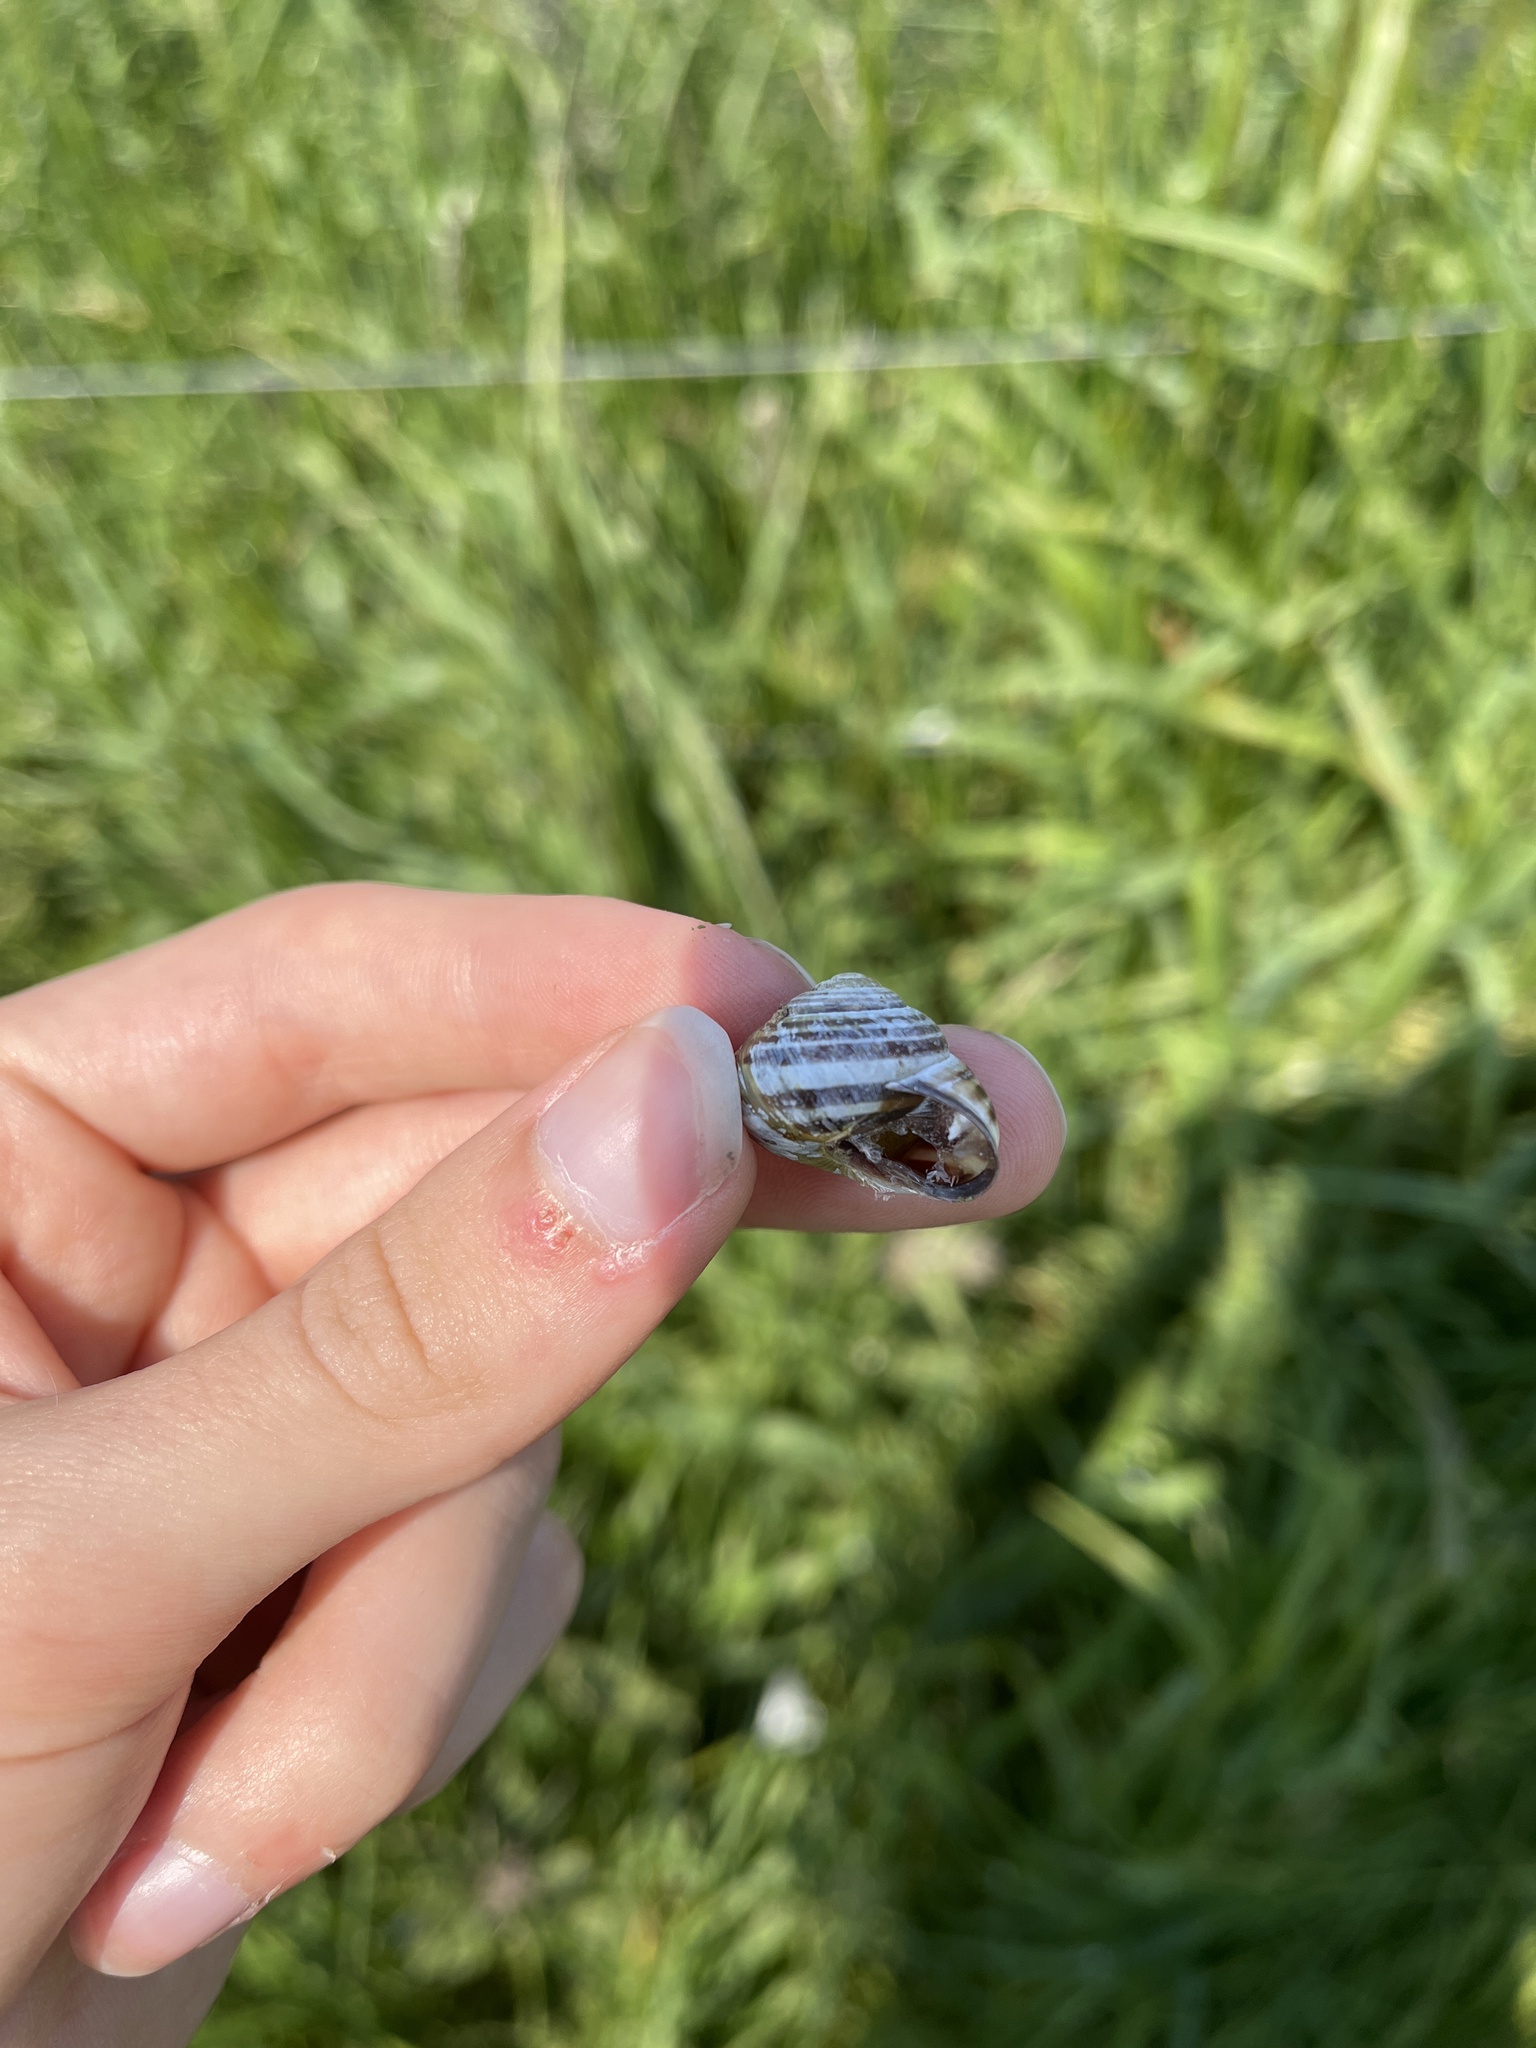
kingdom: Animalia
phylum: Mollusca
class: Gastropoda
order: Stylommatophora
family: Helicidae
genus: Cepaea
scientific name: Cepaea nemoralis
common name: Grovesnail
